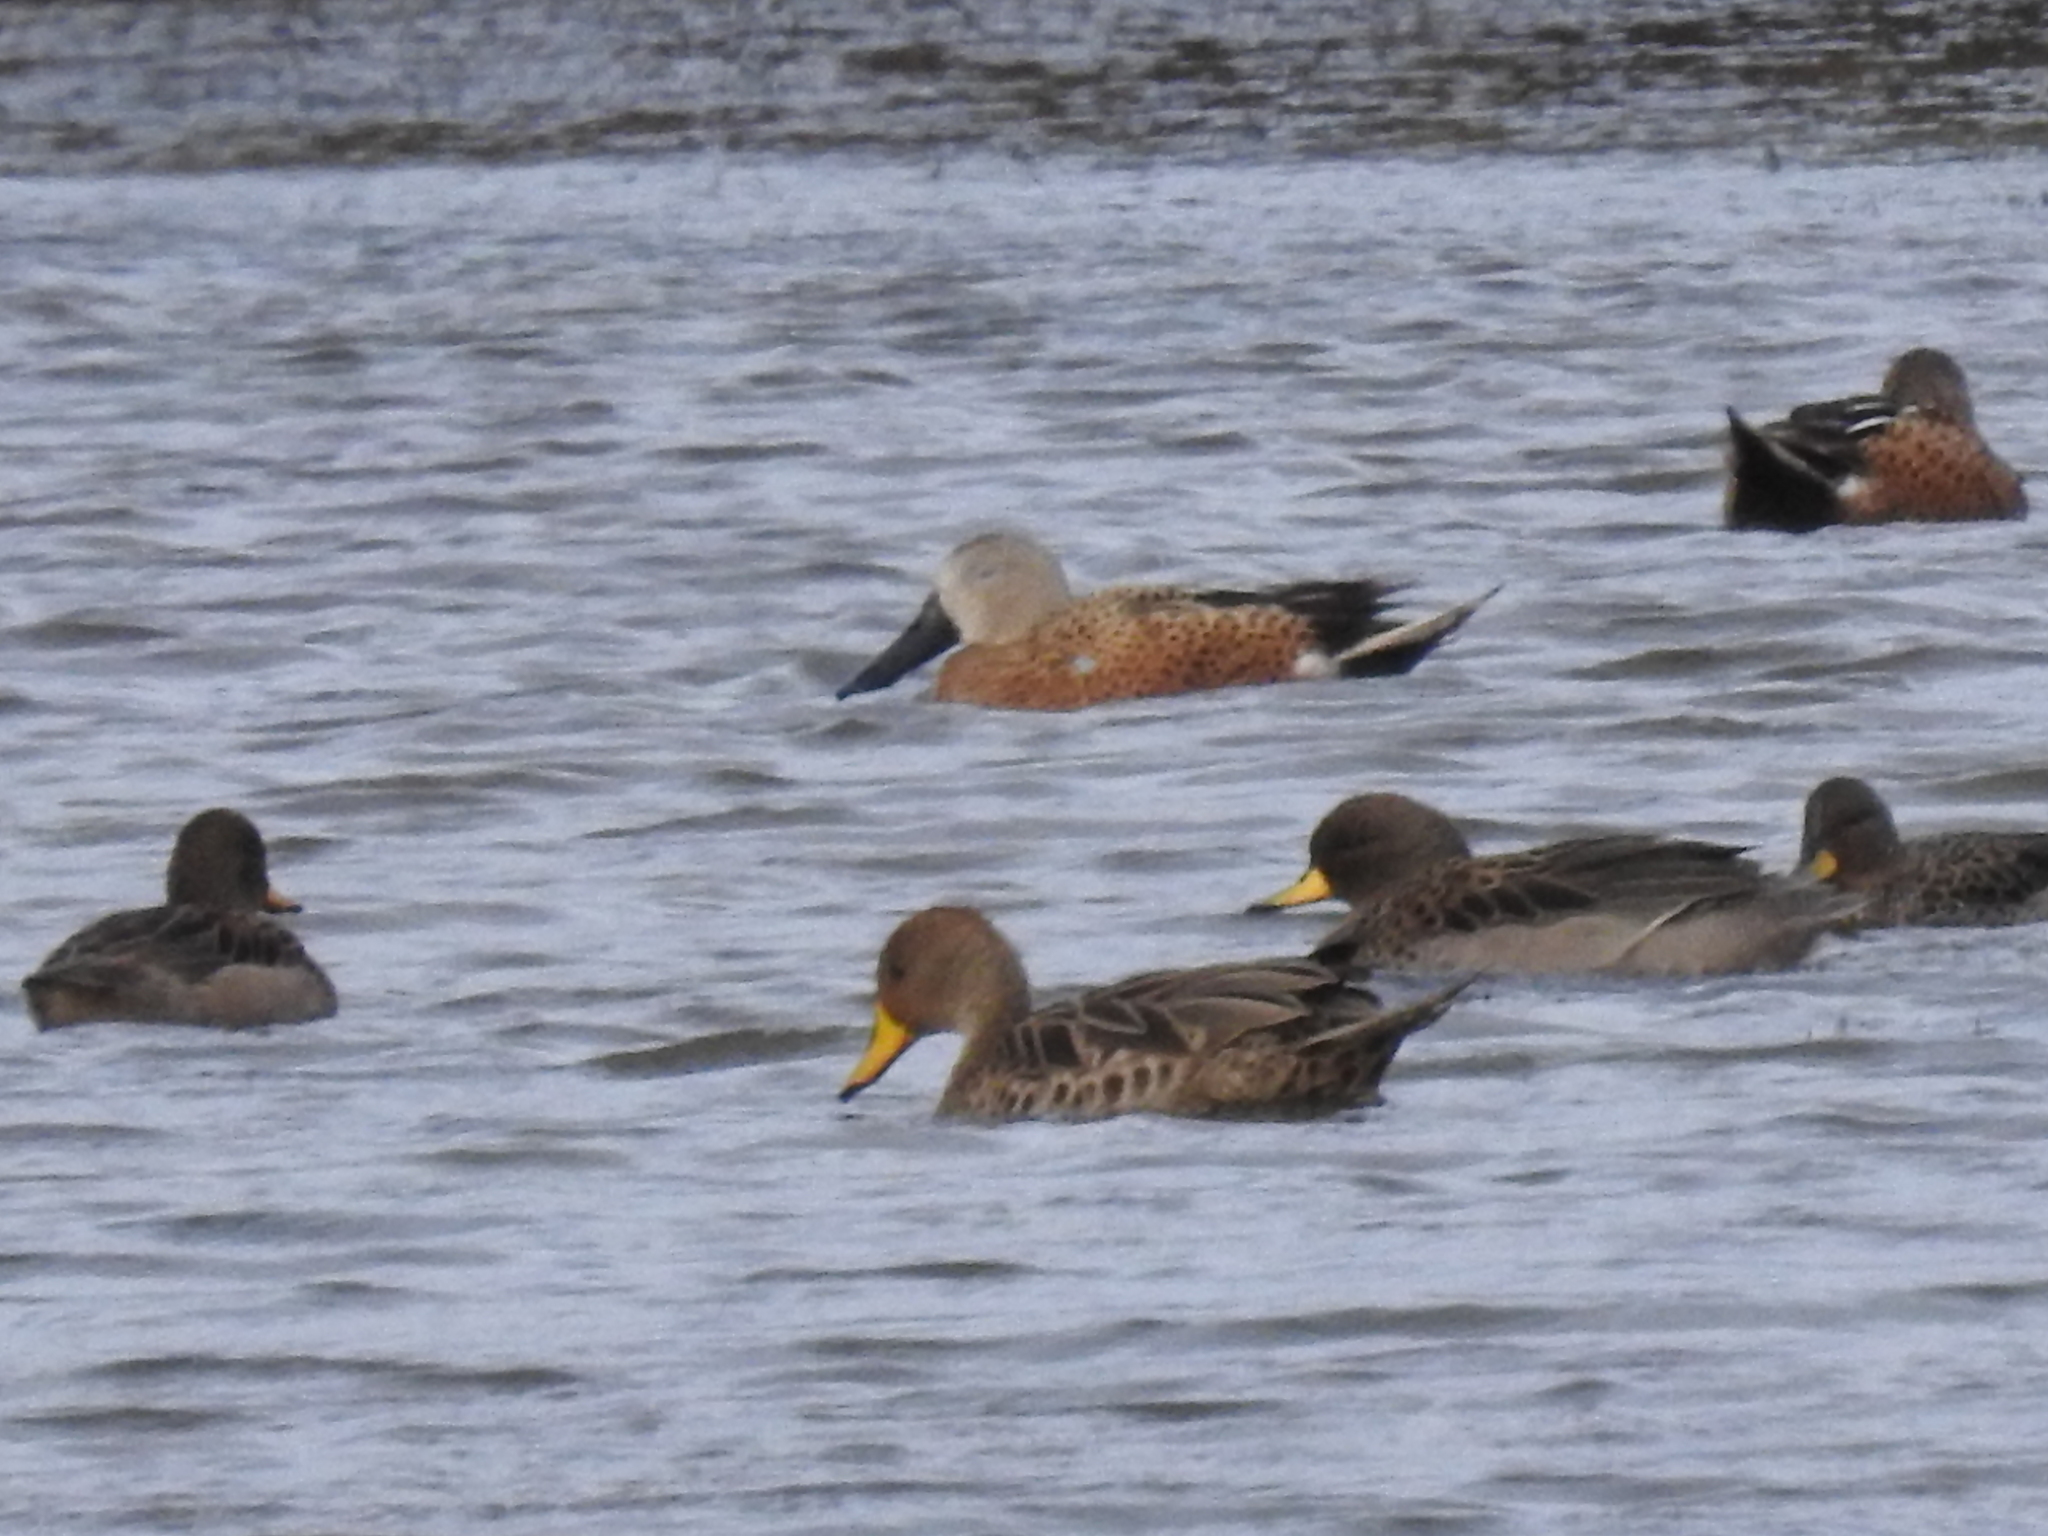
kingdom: Animalia
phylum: Chordata
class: Aves
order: Anseriformes
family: Anatidae
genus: Anas
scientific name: Anas flavirostris
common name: Yellow-billed teal
